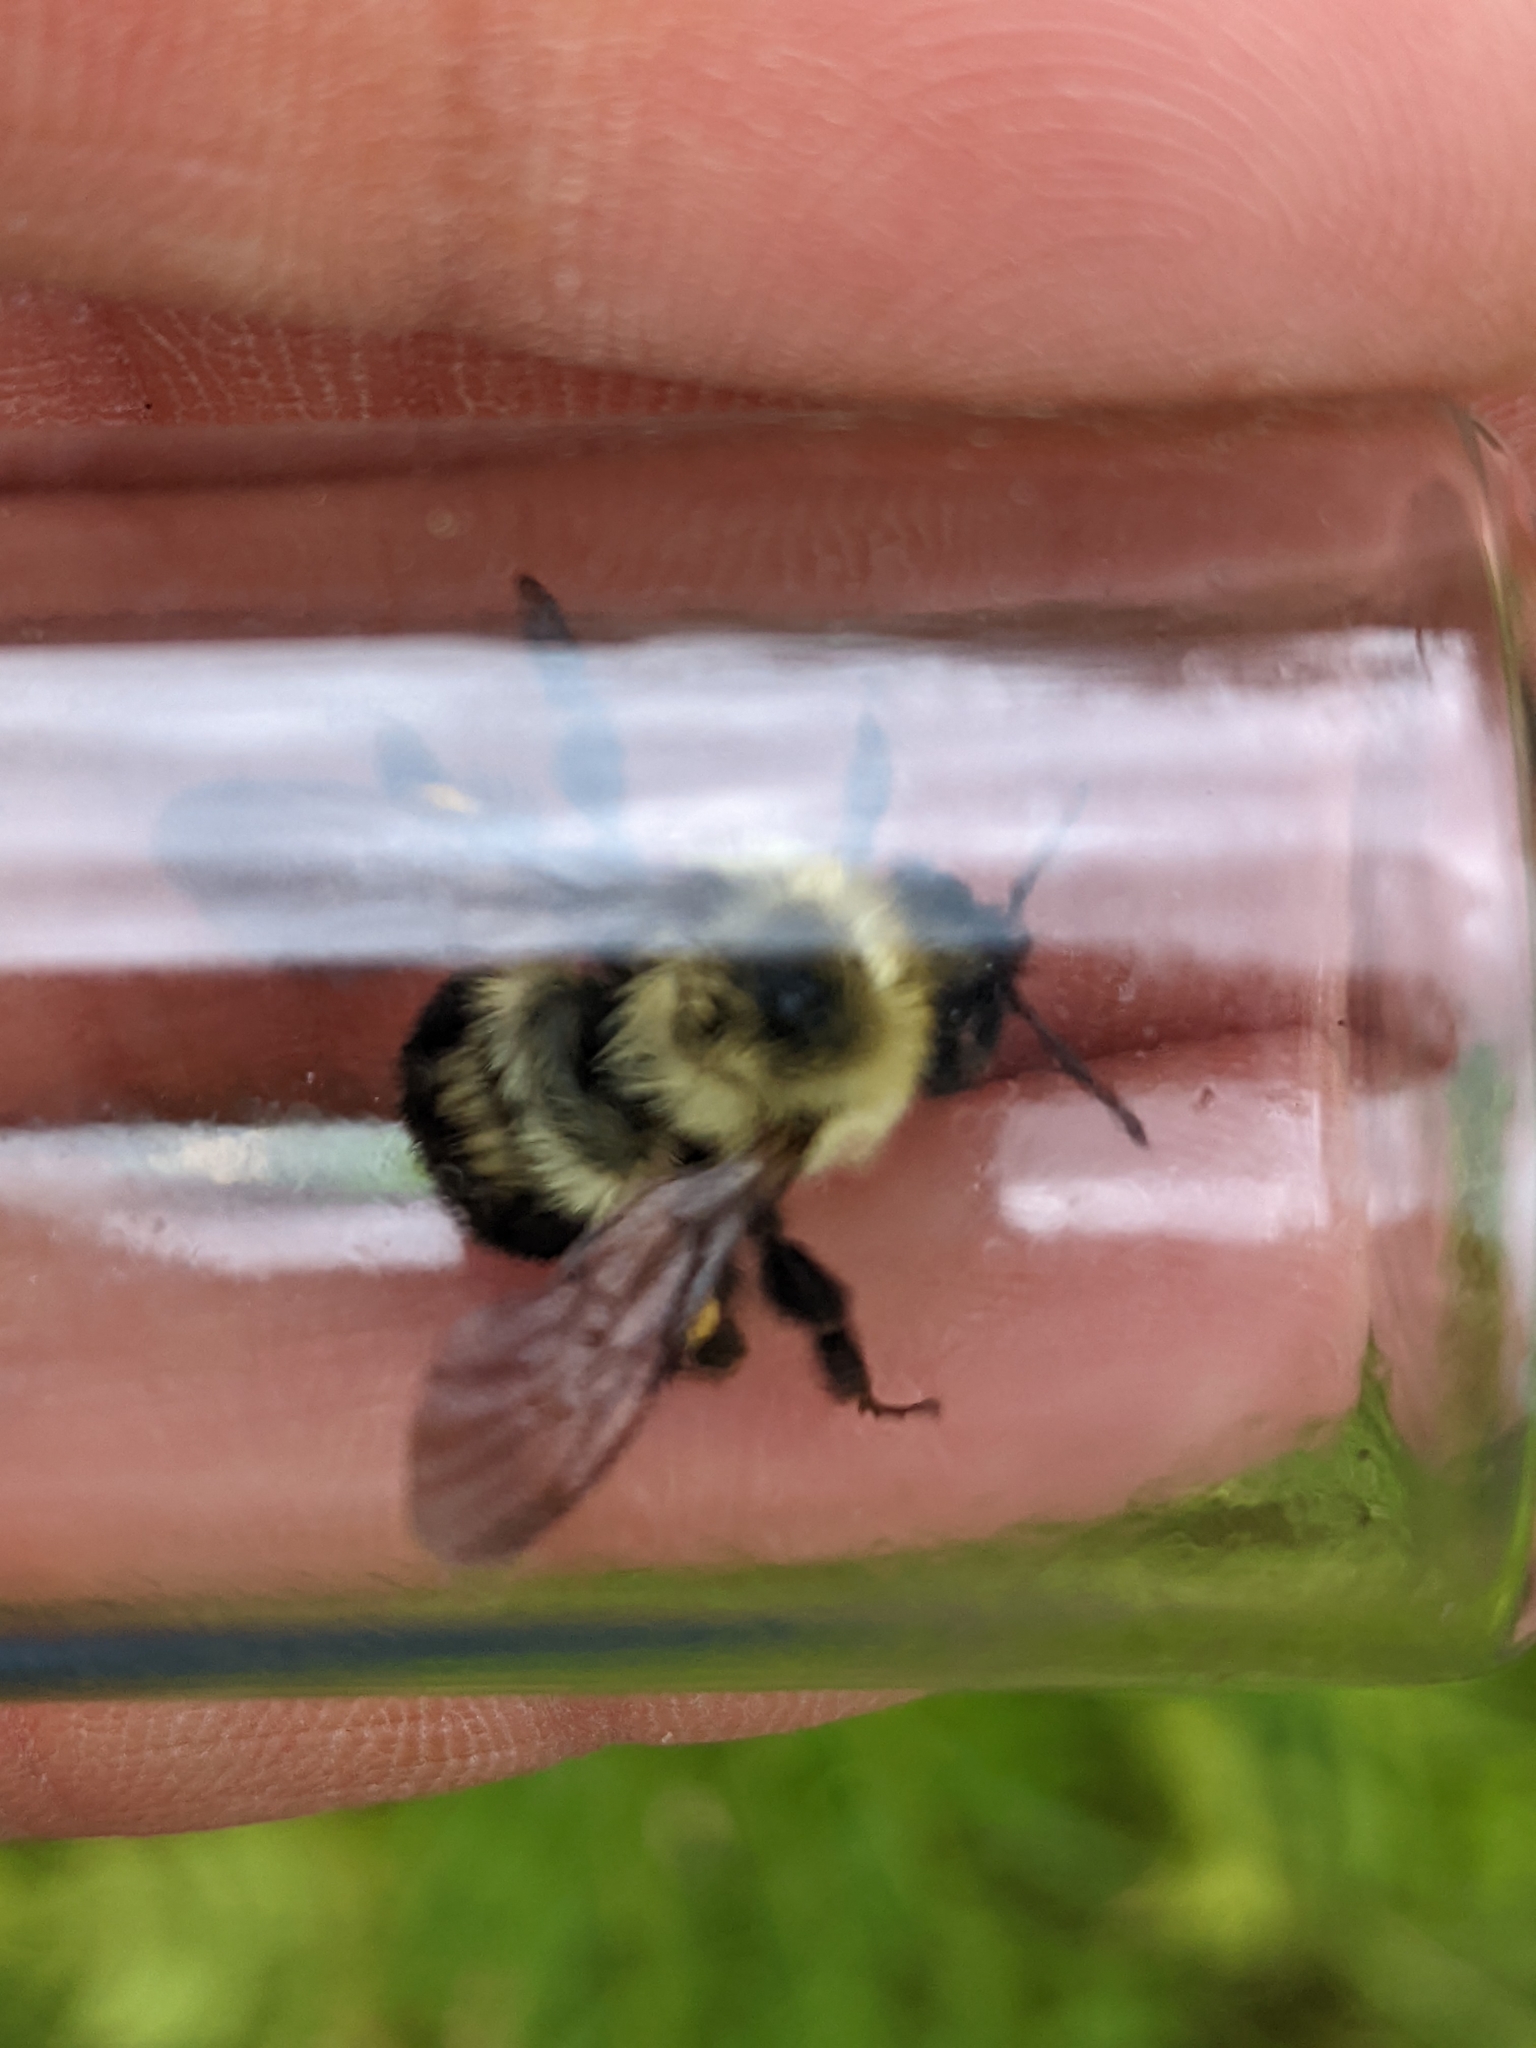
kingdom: Animalia
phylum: Arthropoda
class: Insecta
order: Hymenoptera
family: Apidae
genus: Bombus
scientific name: Bombus bimaculatus
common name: Two-spotted bumble bee
